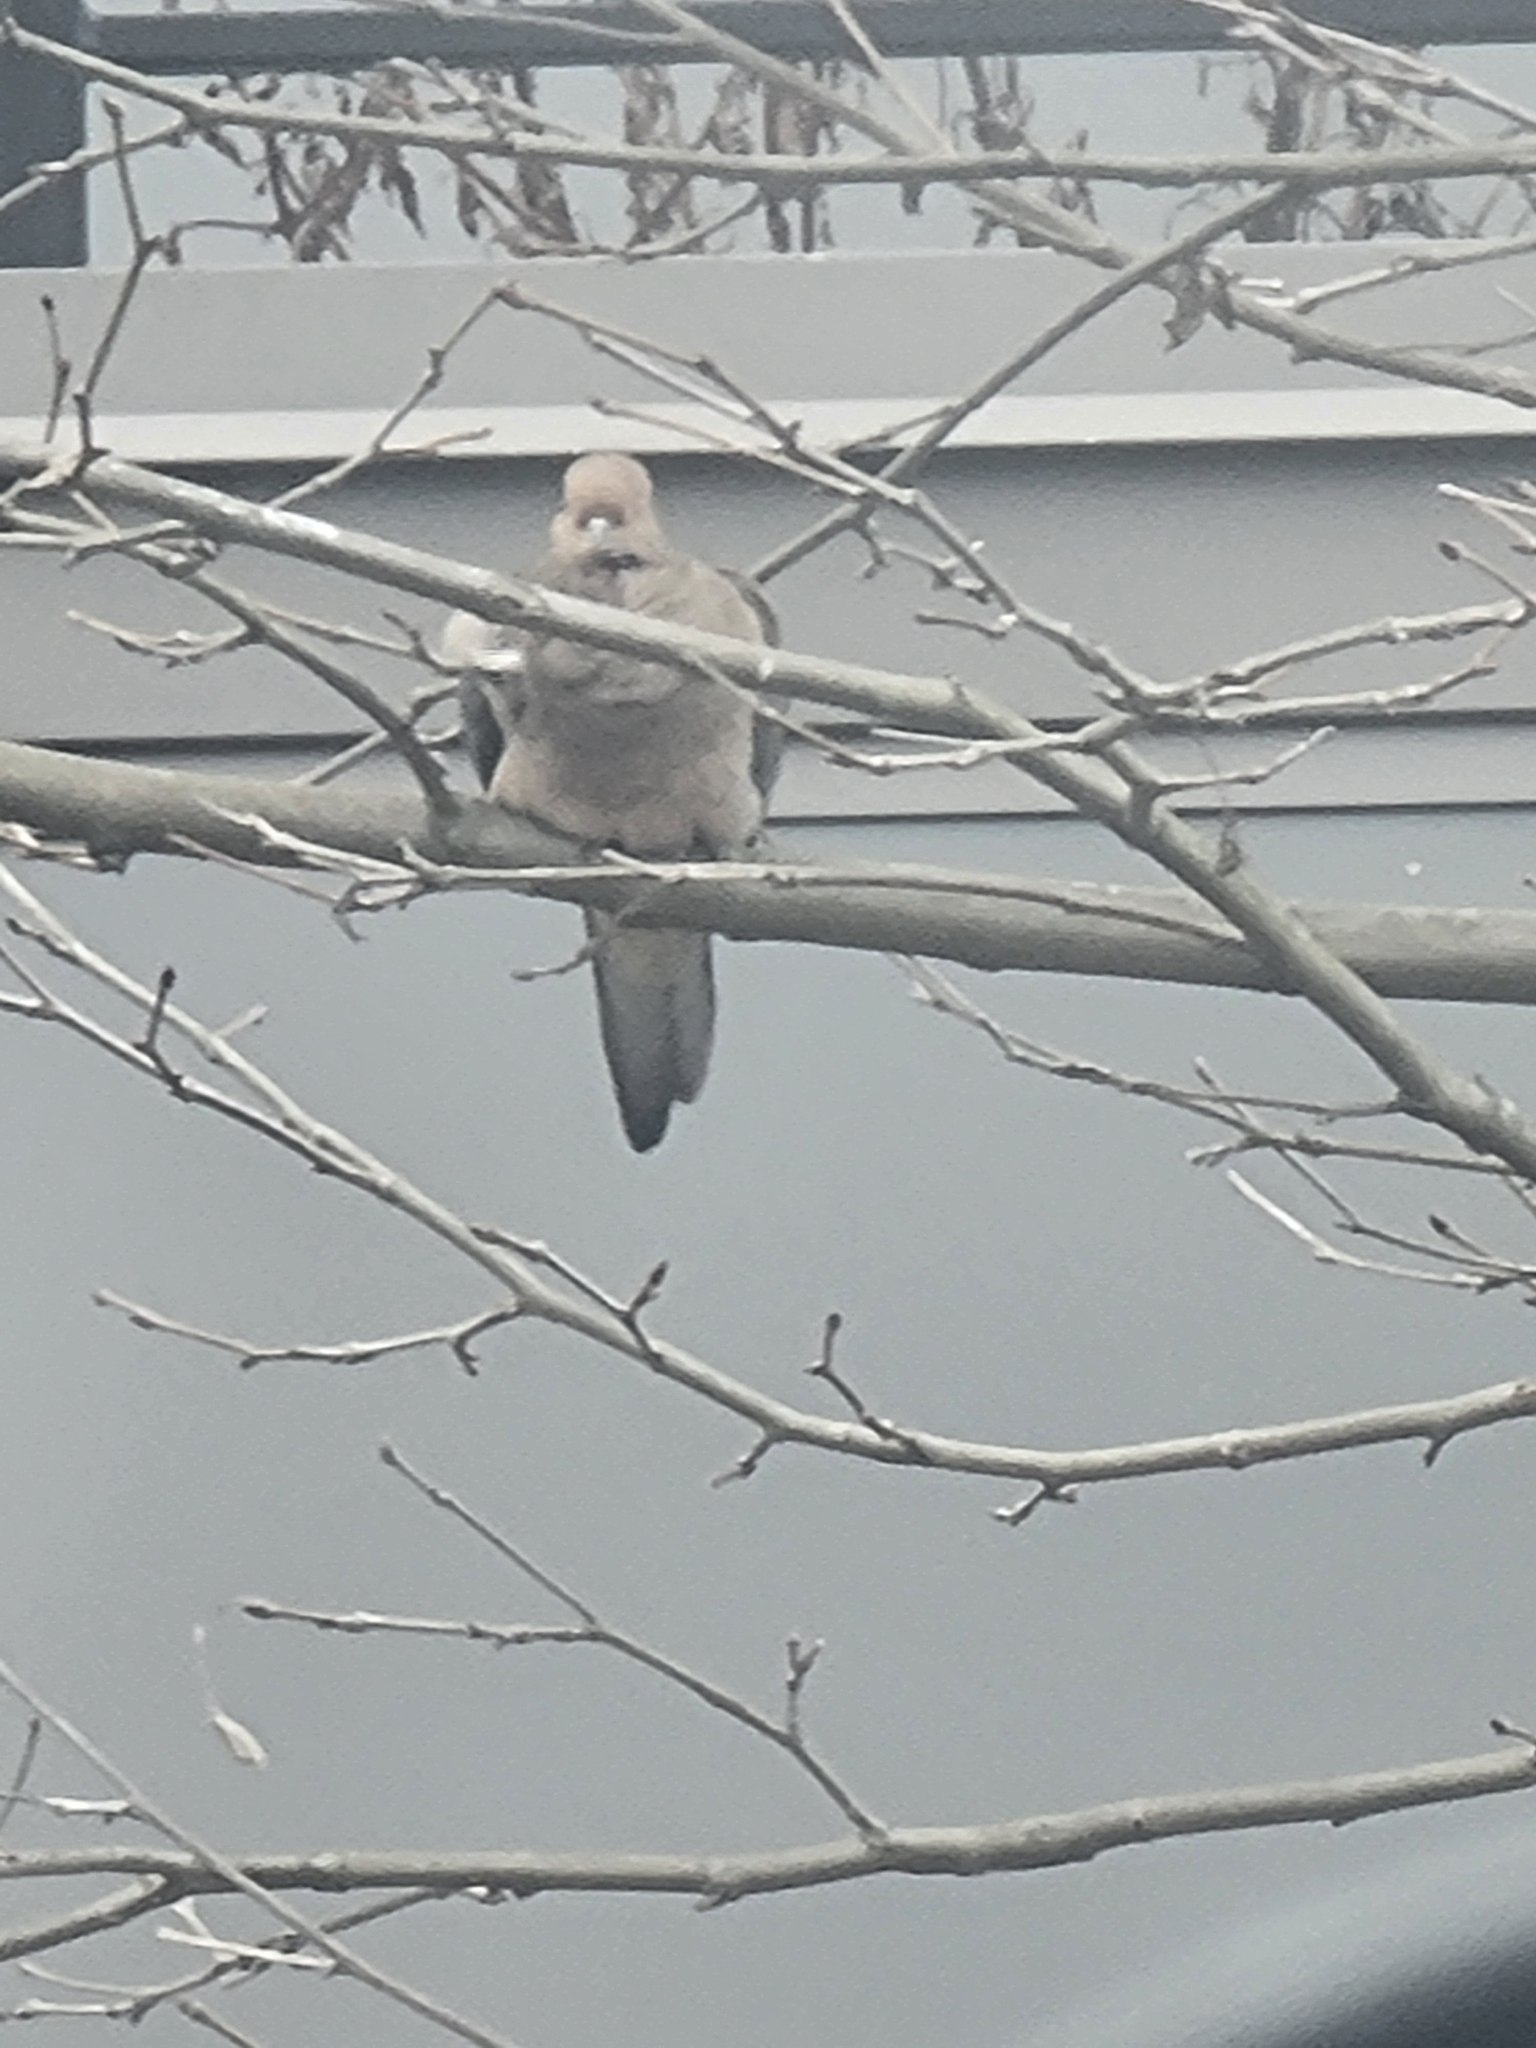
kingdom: Animalia
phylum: Chordata
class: Aves
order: Columbiformes
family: Columbidae
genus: Zenaida
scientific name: Zenaida macroura
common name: Mourning dove
